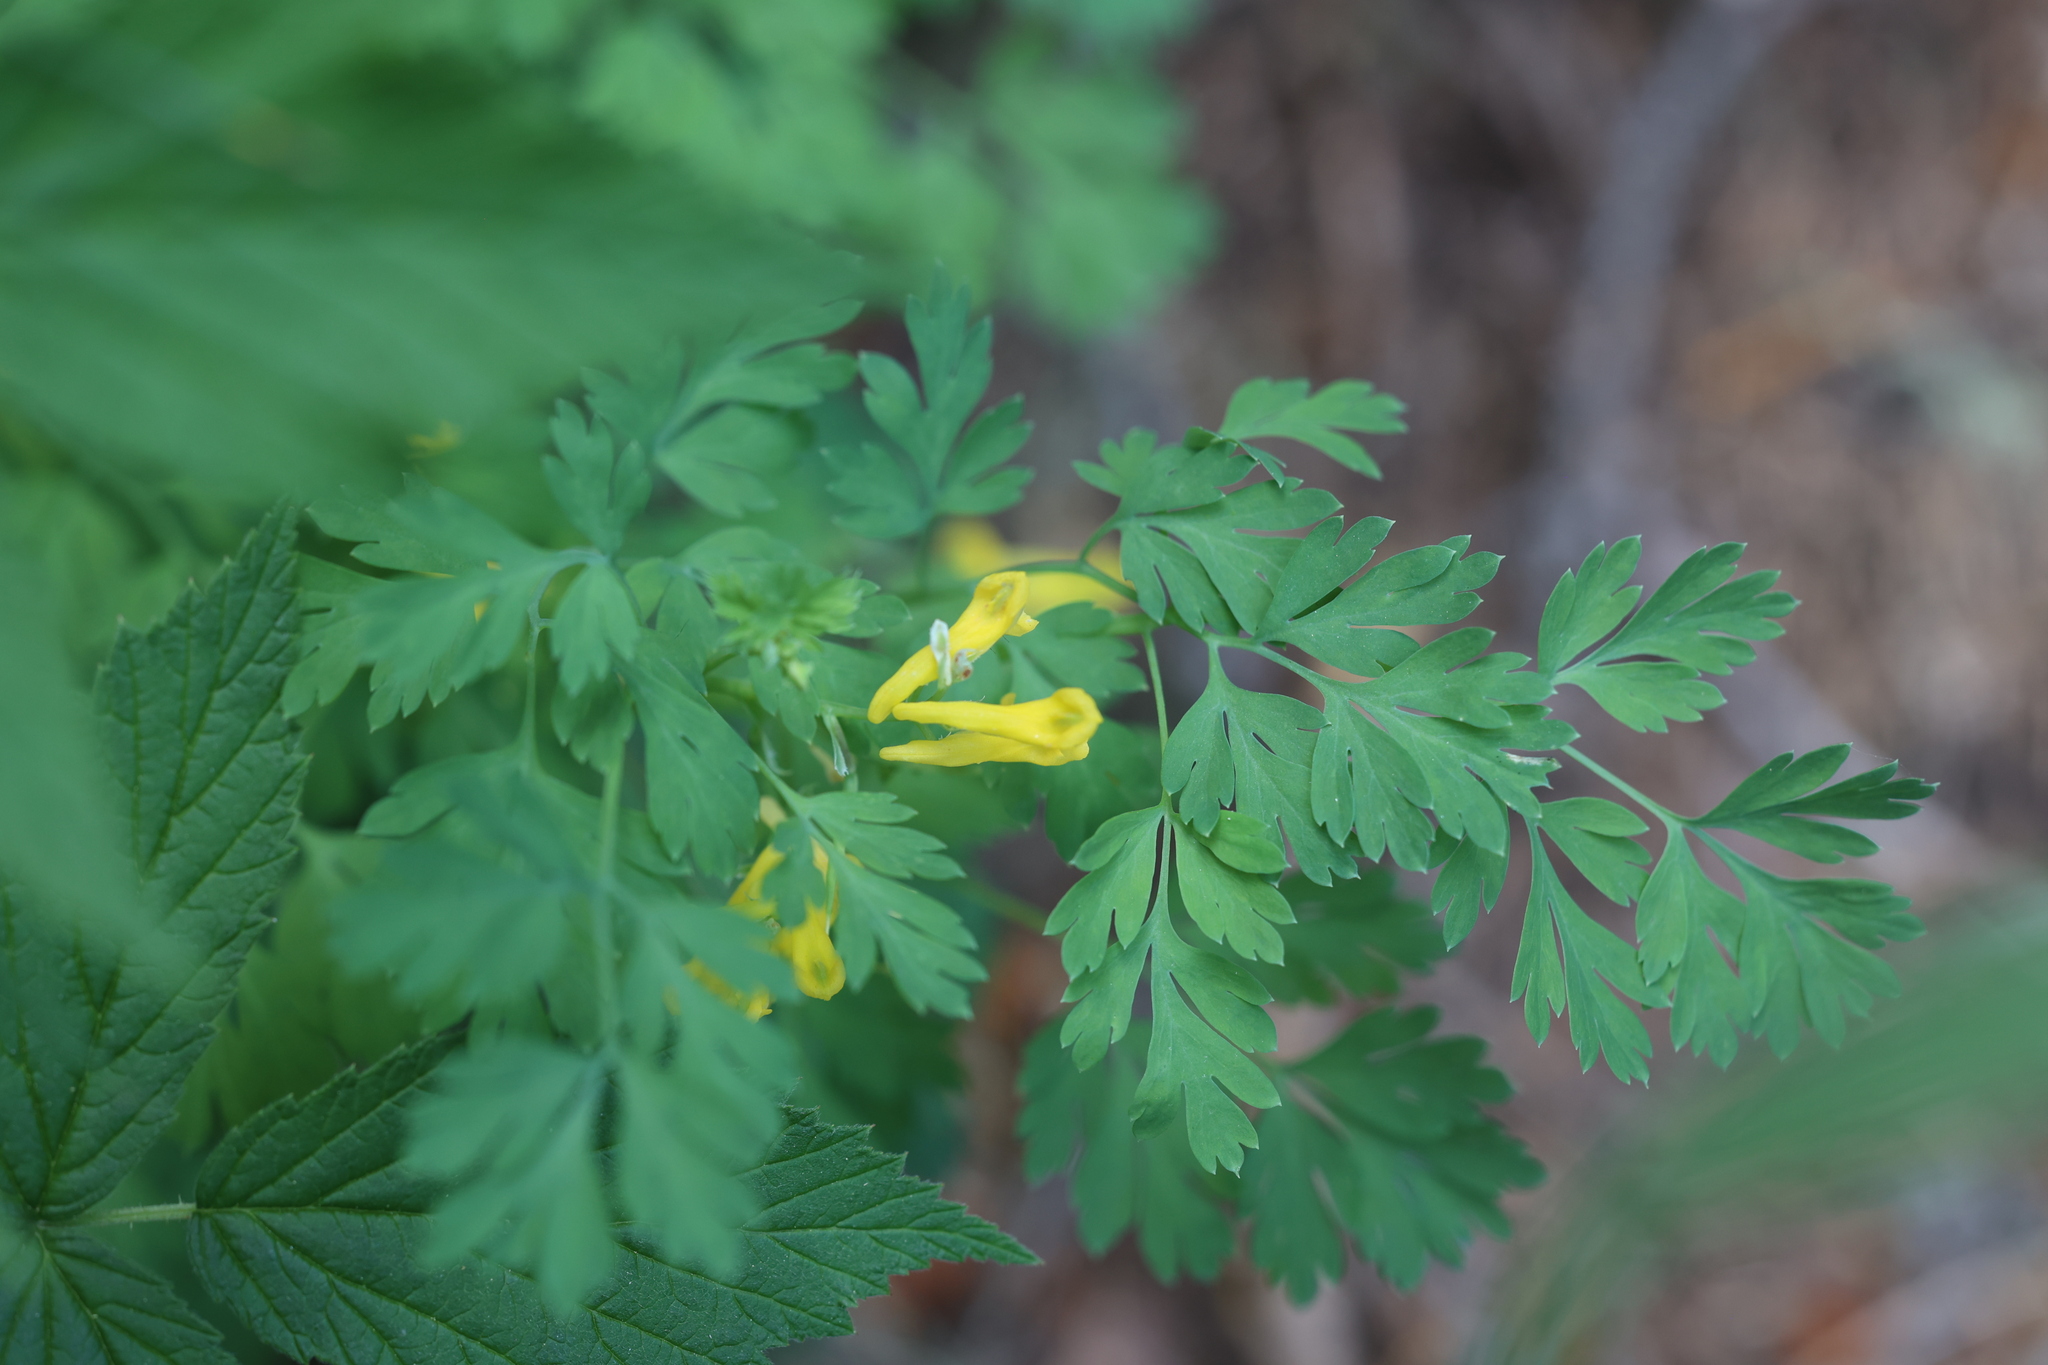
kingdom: Plantae
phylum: Tracheophyta
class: Magnoliopsida
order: Ranunculales
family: Papaveraceae
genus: Corydalis
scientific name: Corydalis aurea
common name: Golden corydalis
